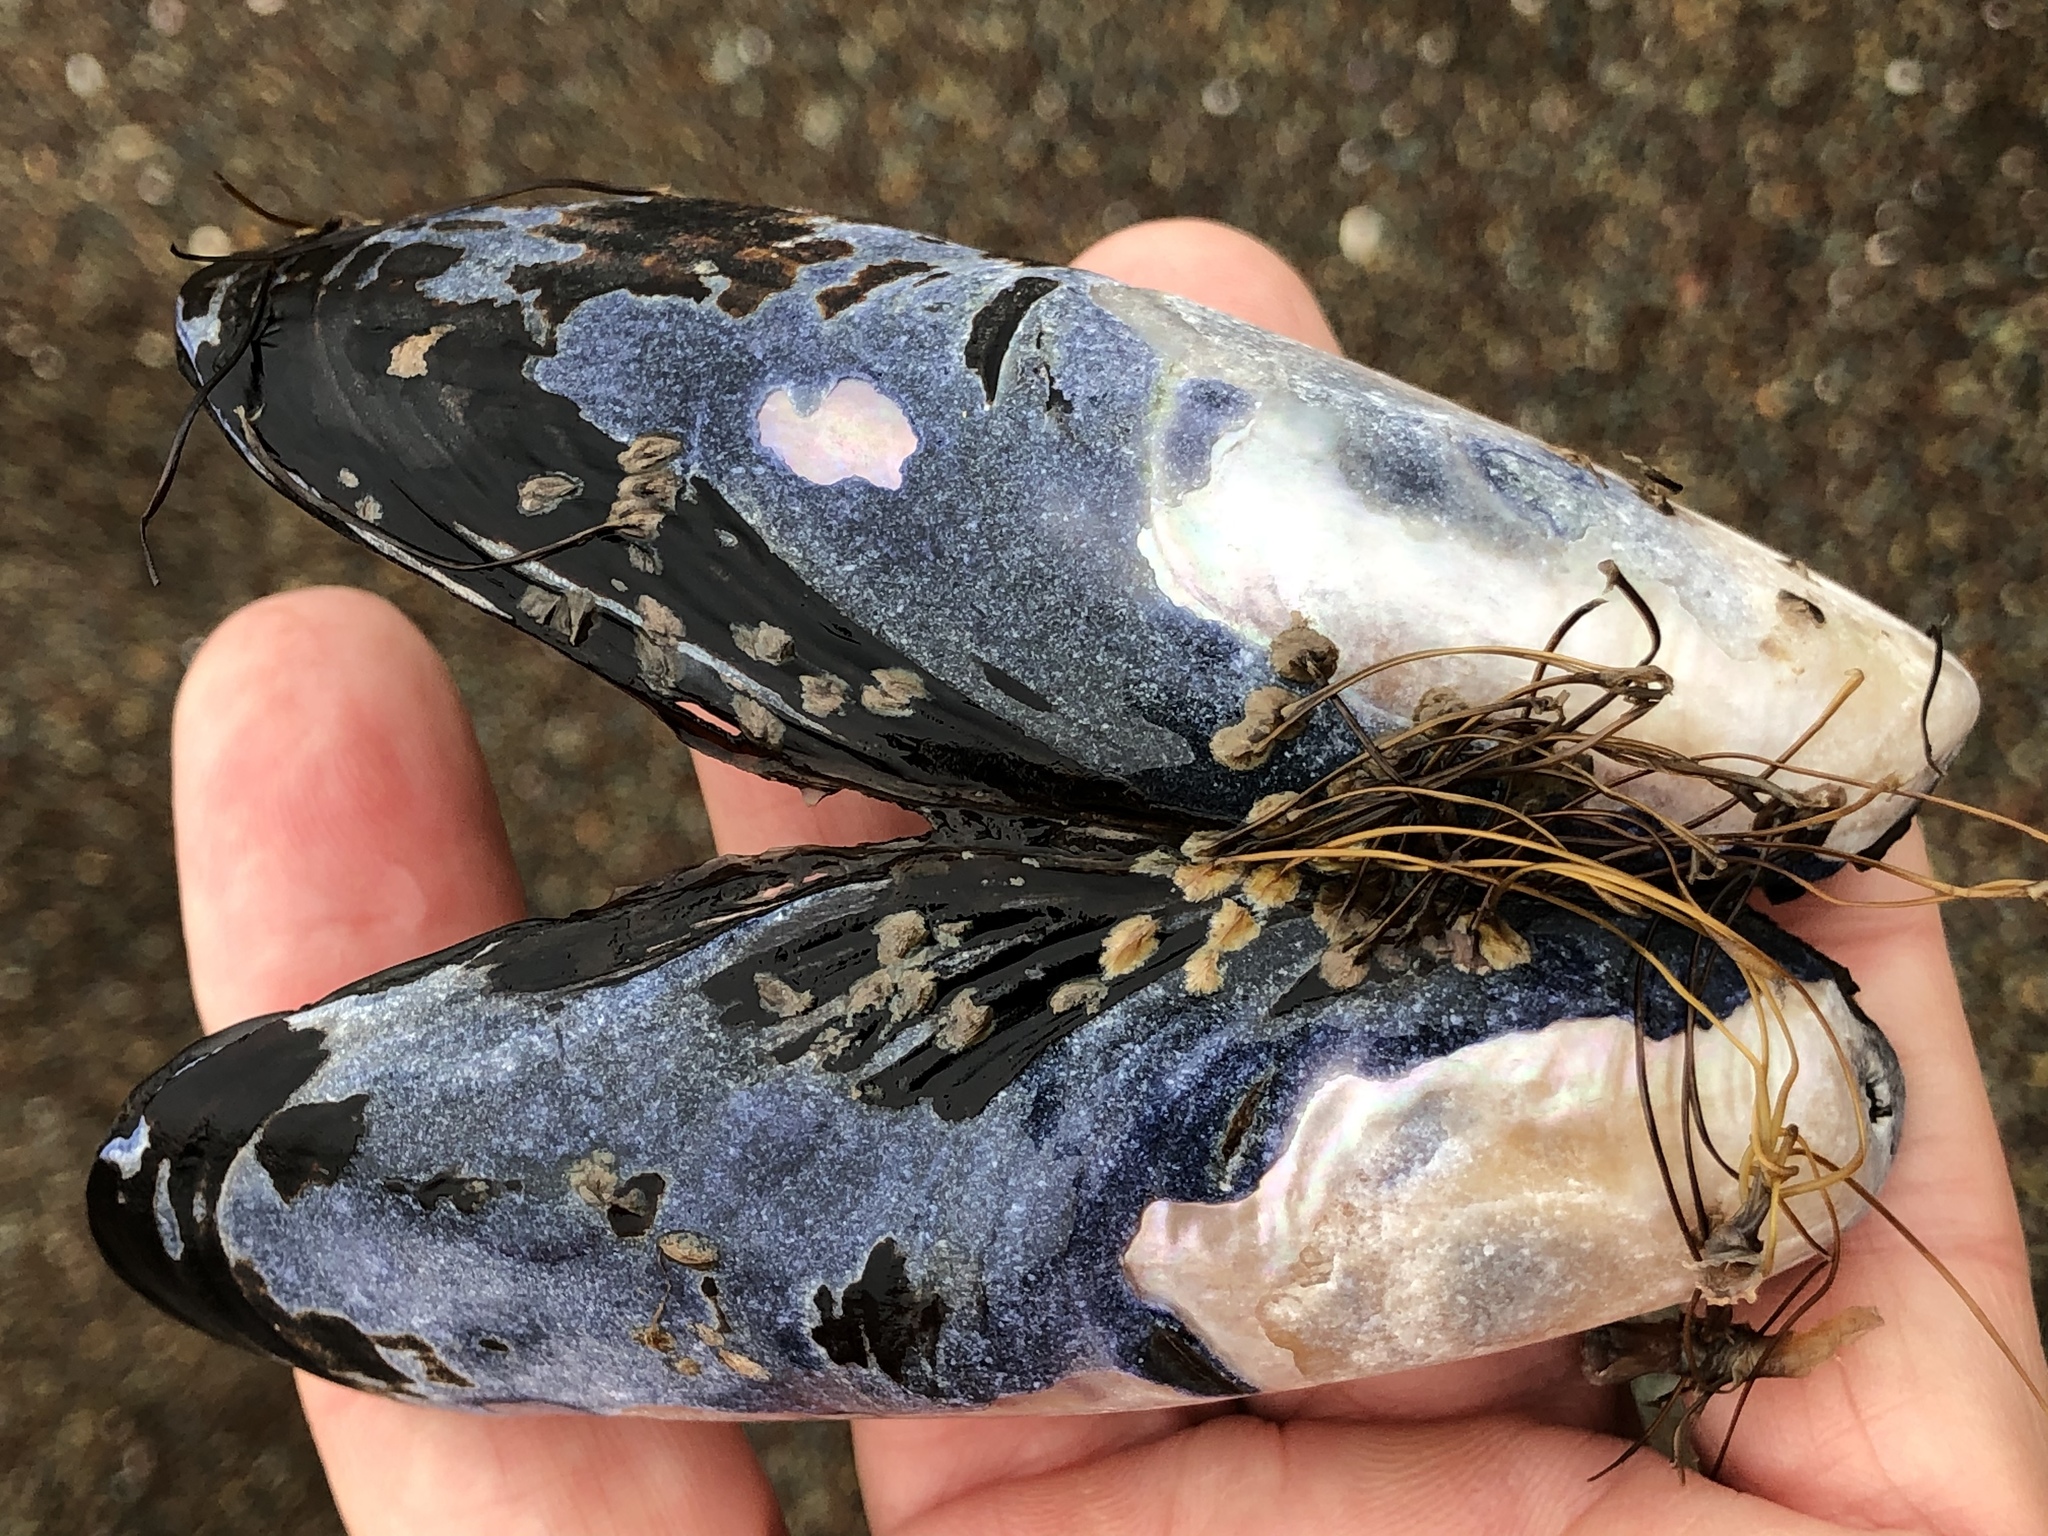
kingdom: Animalia
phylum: Mollusca
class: Bivalvia
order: Mytilida
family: Mytilidae
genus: Mytilus
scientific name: Mytilus californianus
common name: California mussel
